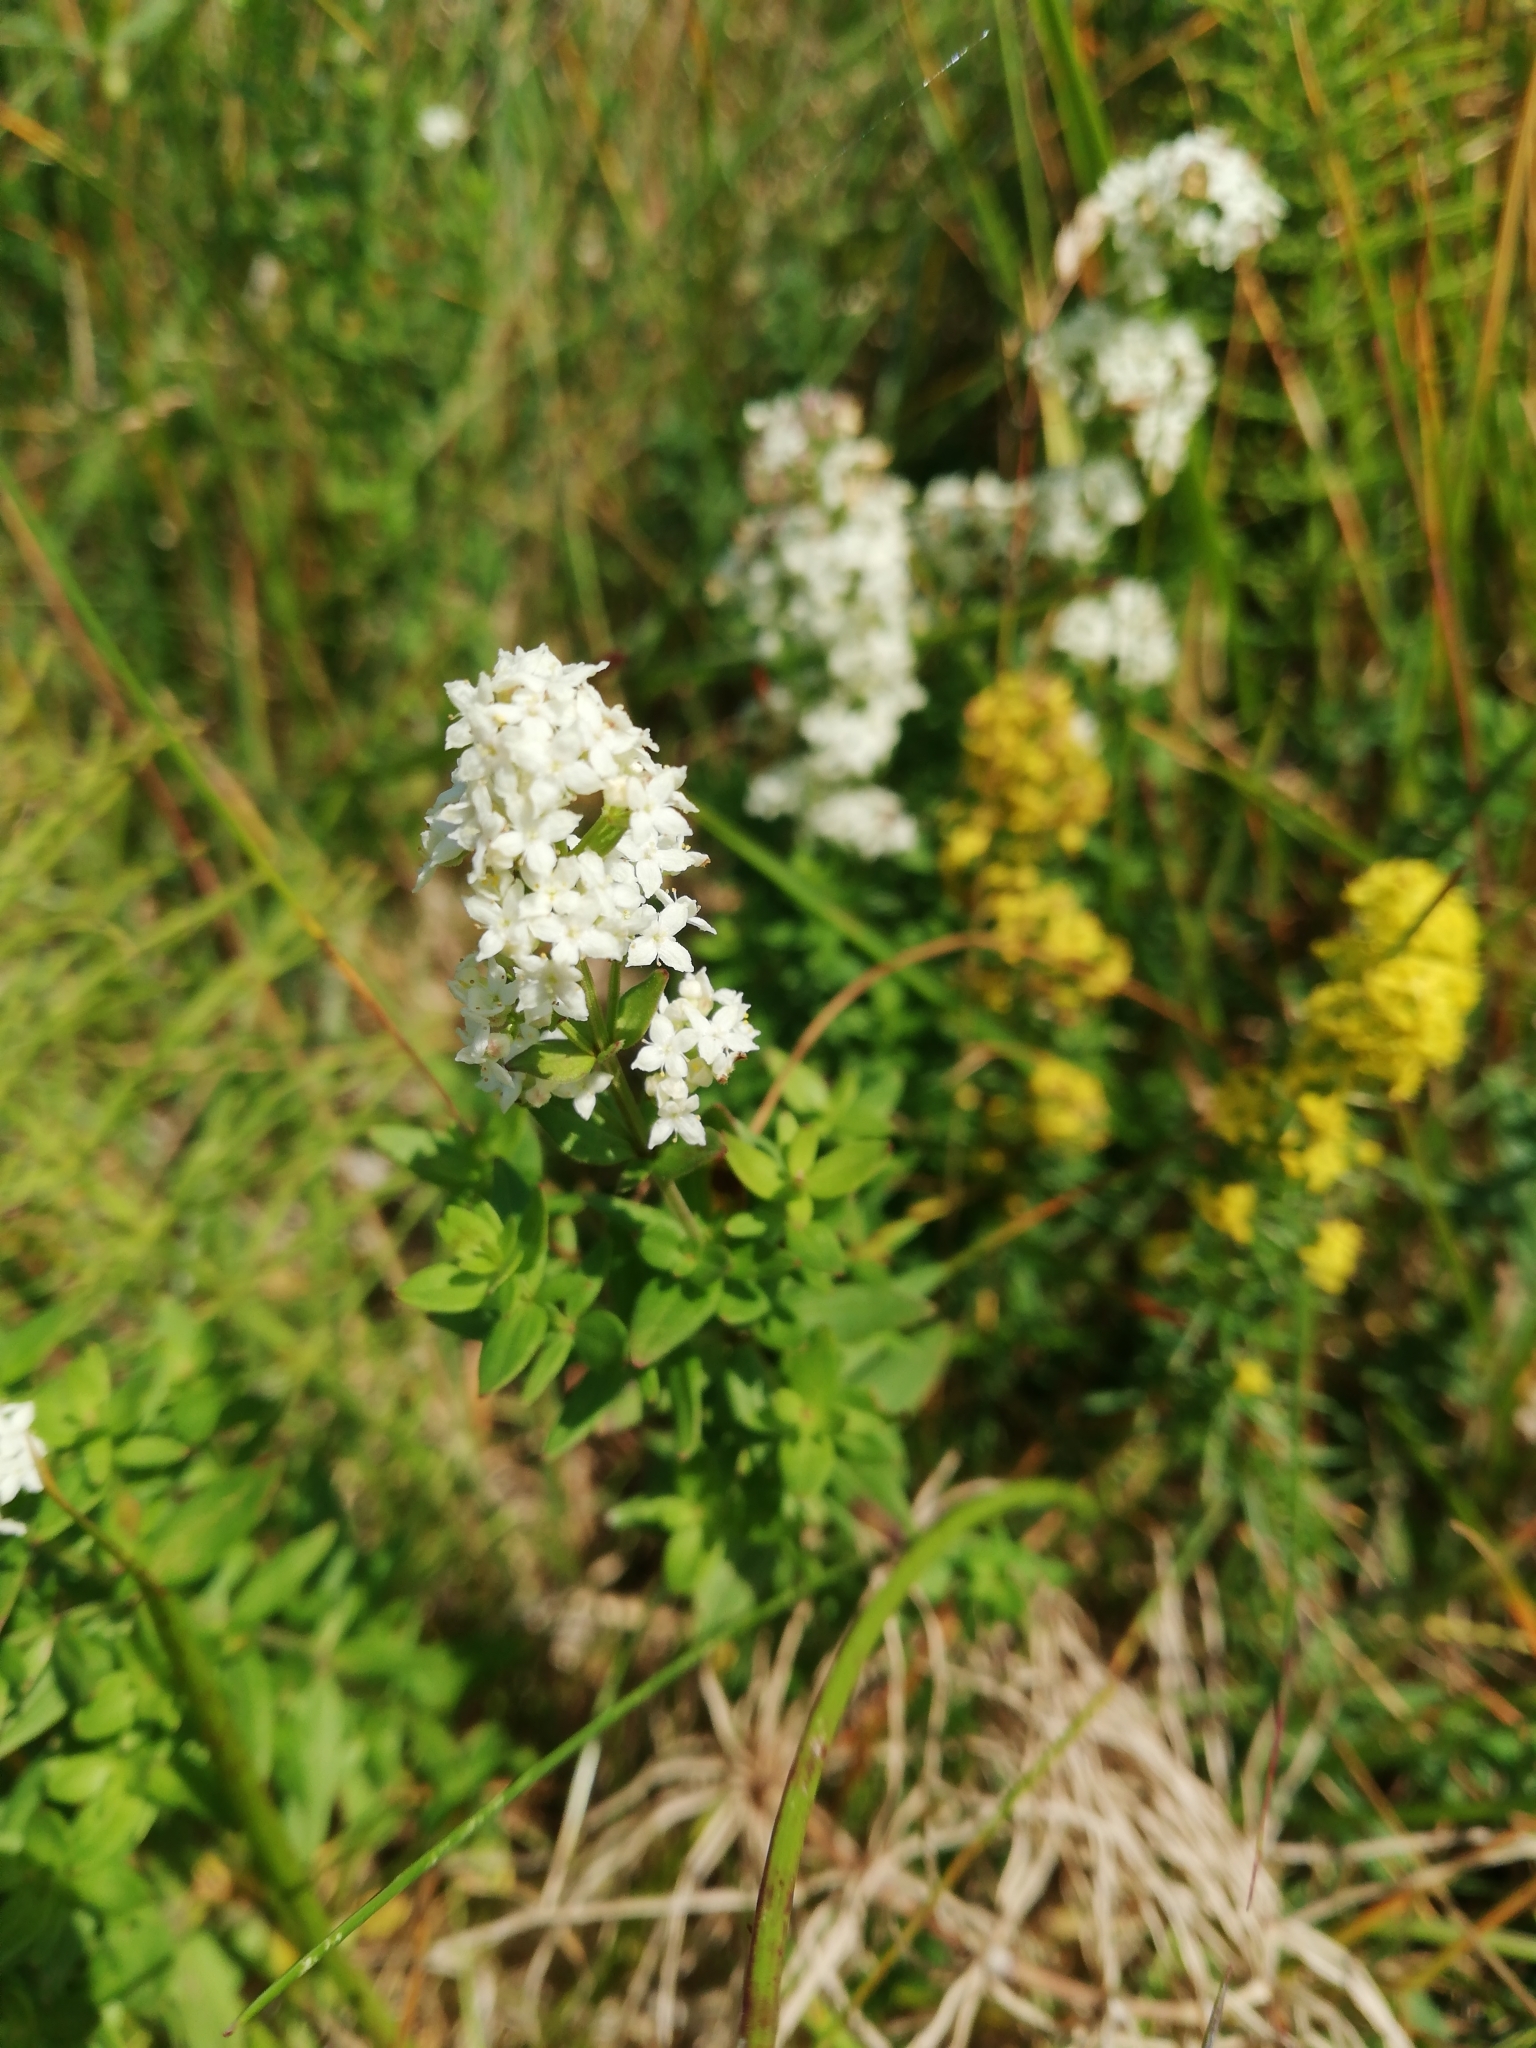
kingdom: Plantae
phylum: Tracheophyta
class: Magnoliopsida
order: Gentianales
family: Rubiaceae
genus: Galium
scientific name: Galium boreale
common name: Northern bedstraw
